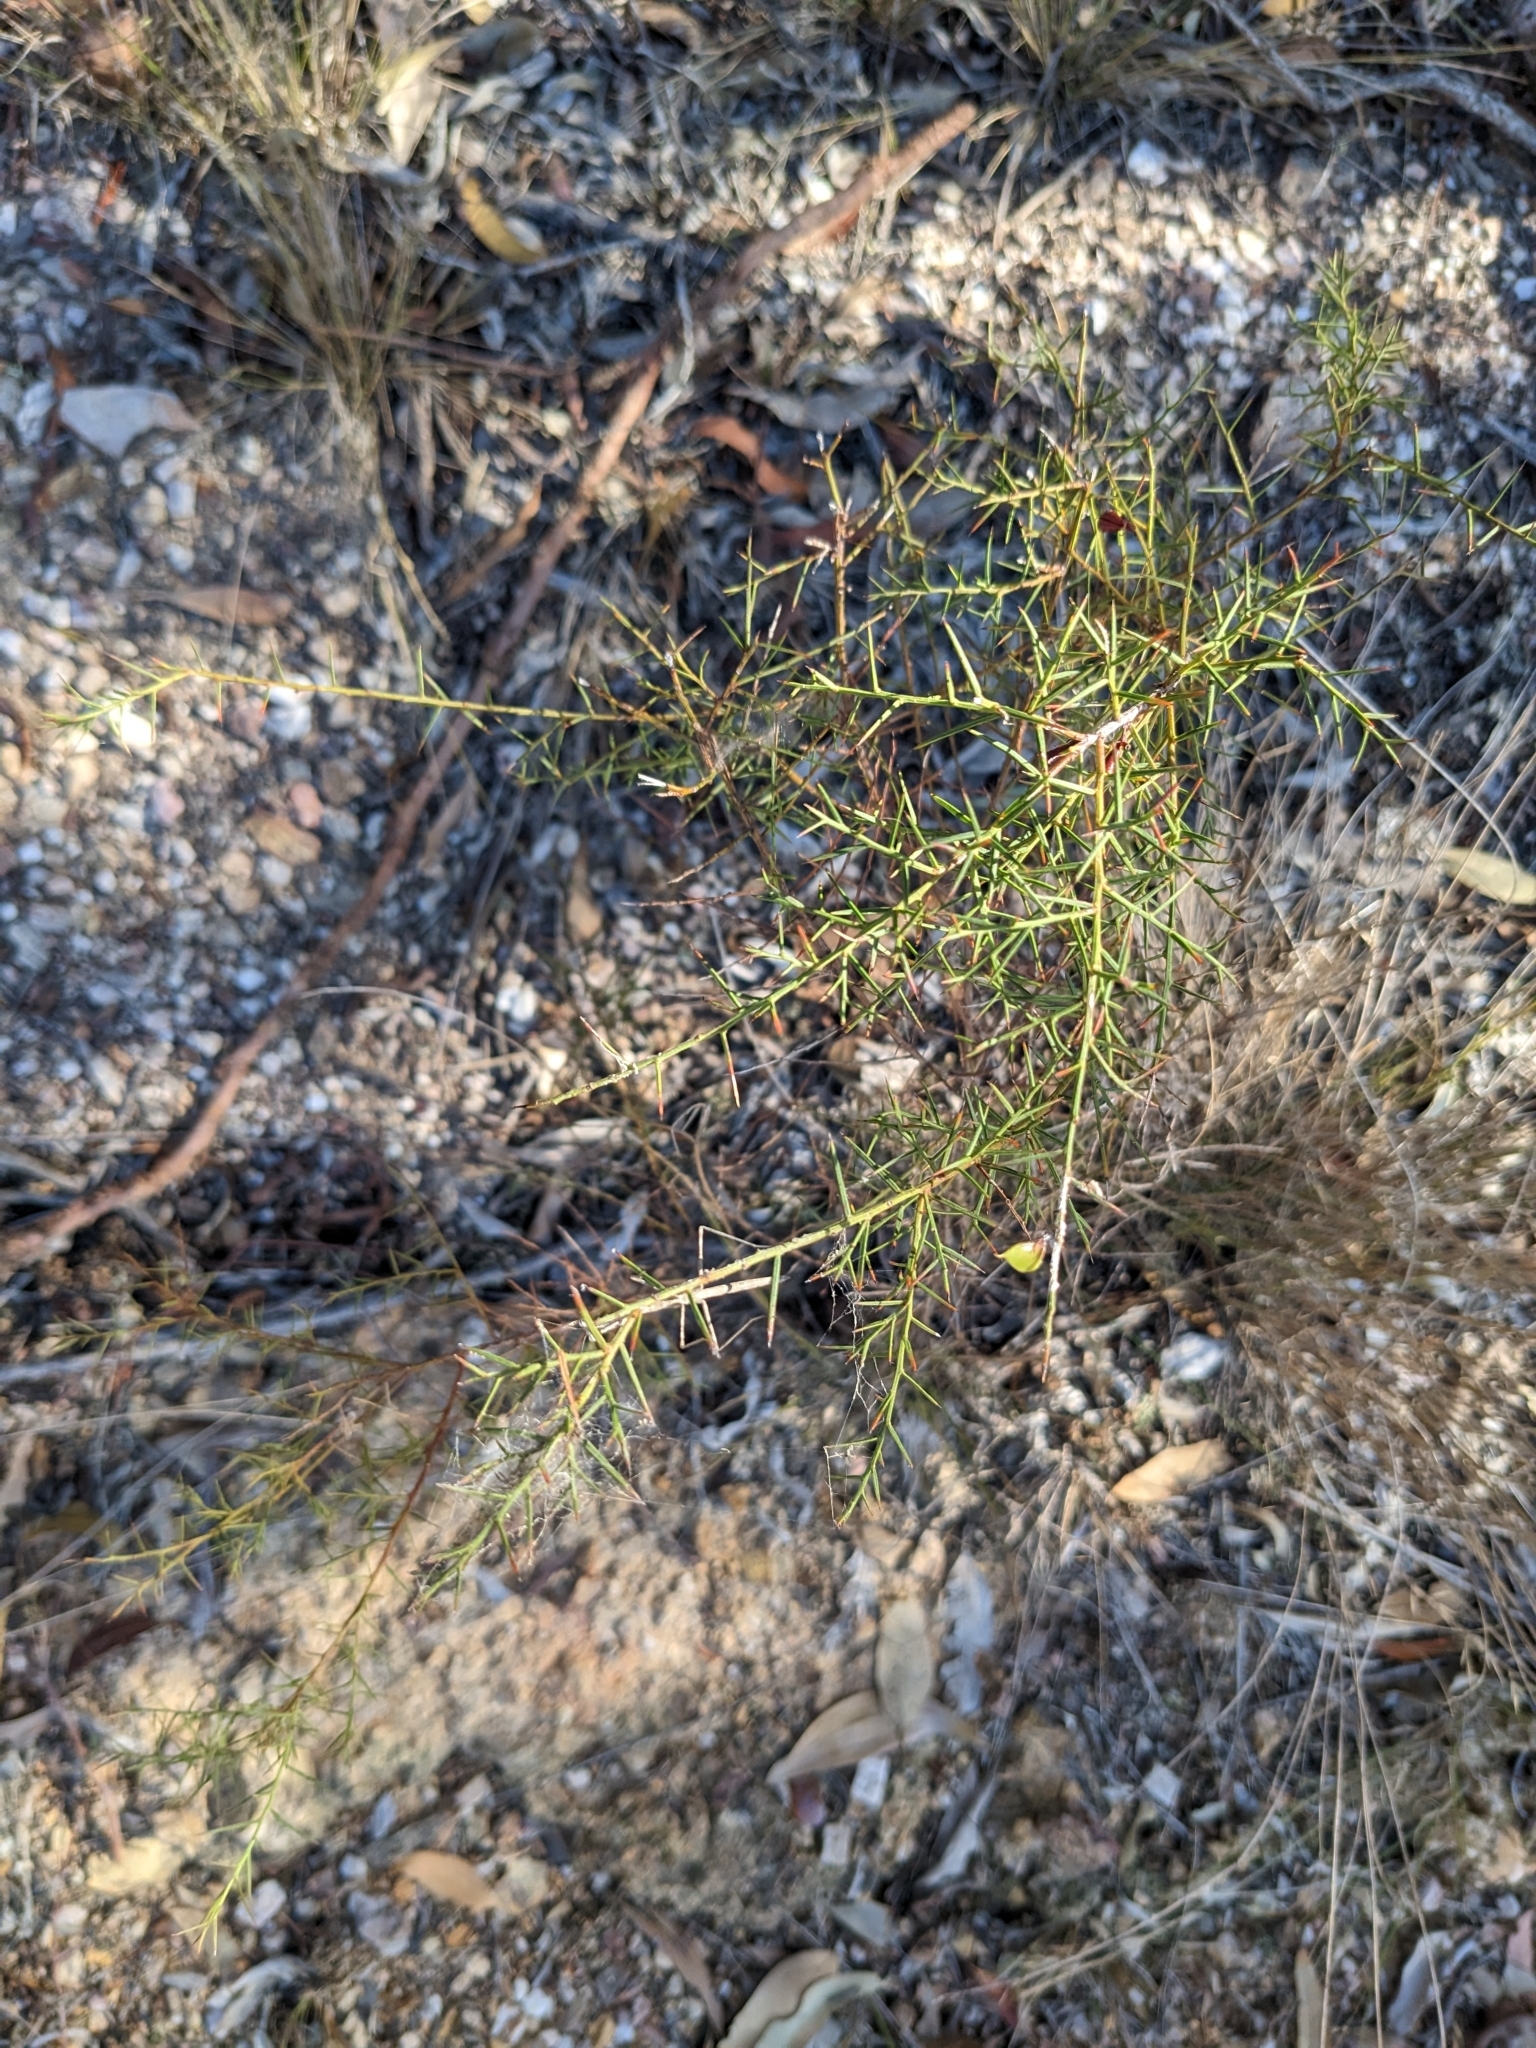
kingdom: Plantae
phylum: Tracheophyta
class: Magnoliopsida
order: Fabales
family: Fabaceae
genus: Daviesia
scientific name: Daviesia ulicifolia
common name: Gorse bitter-pea
